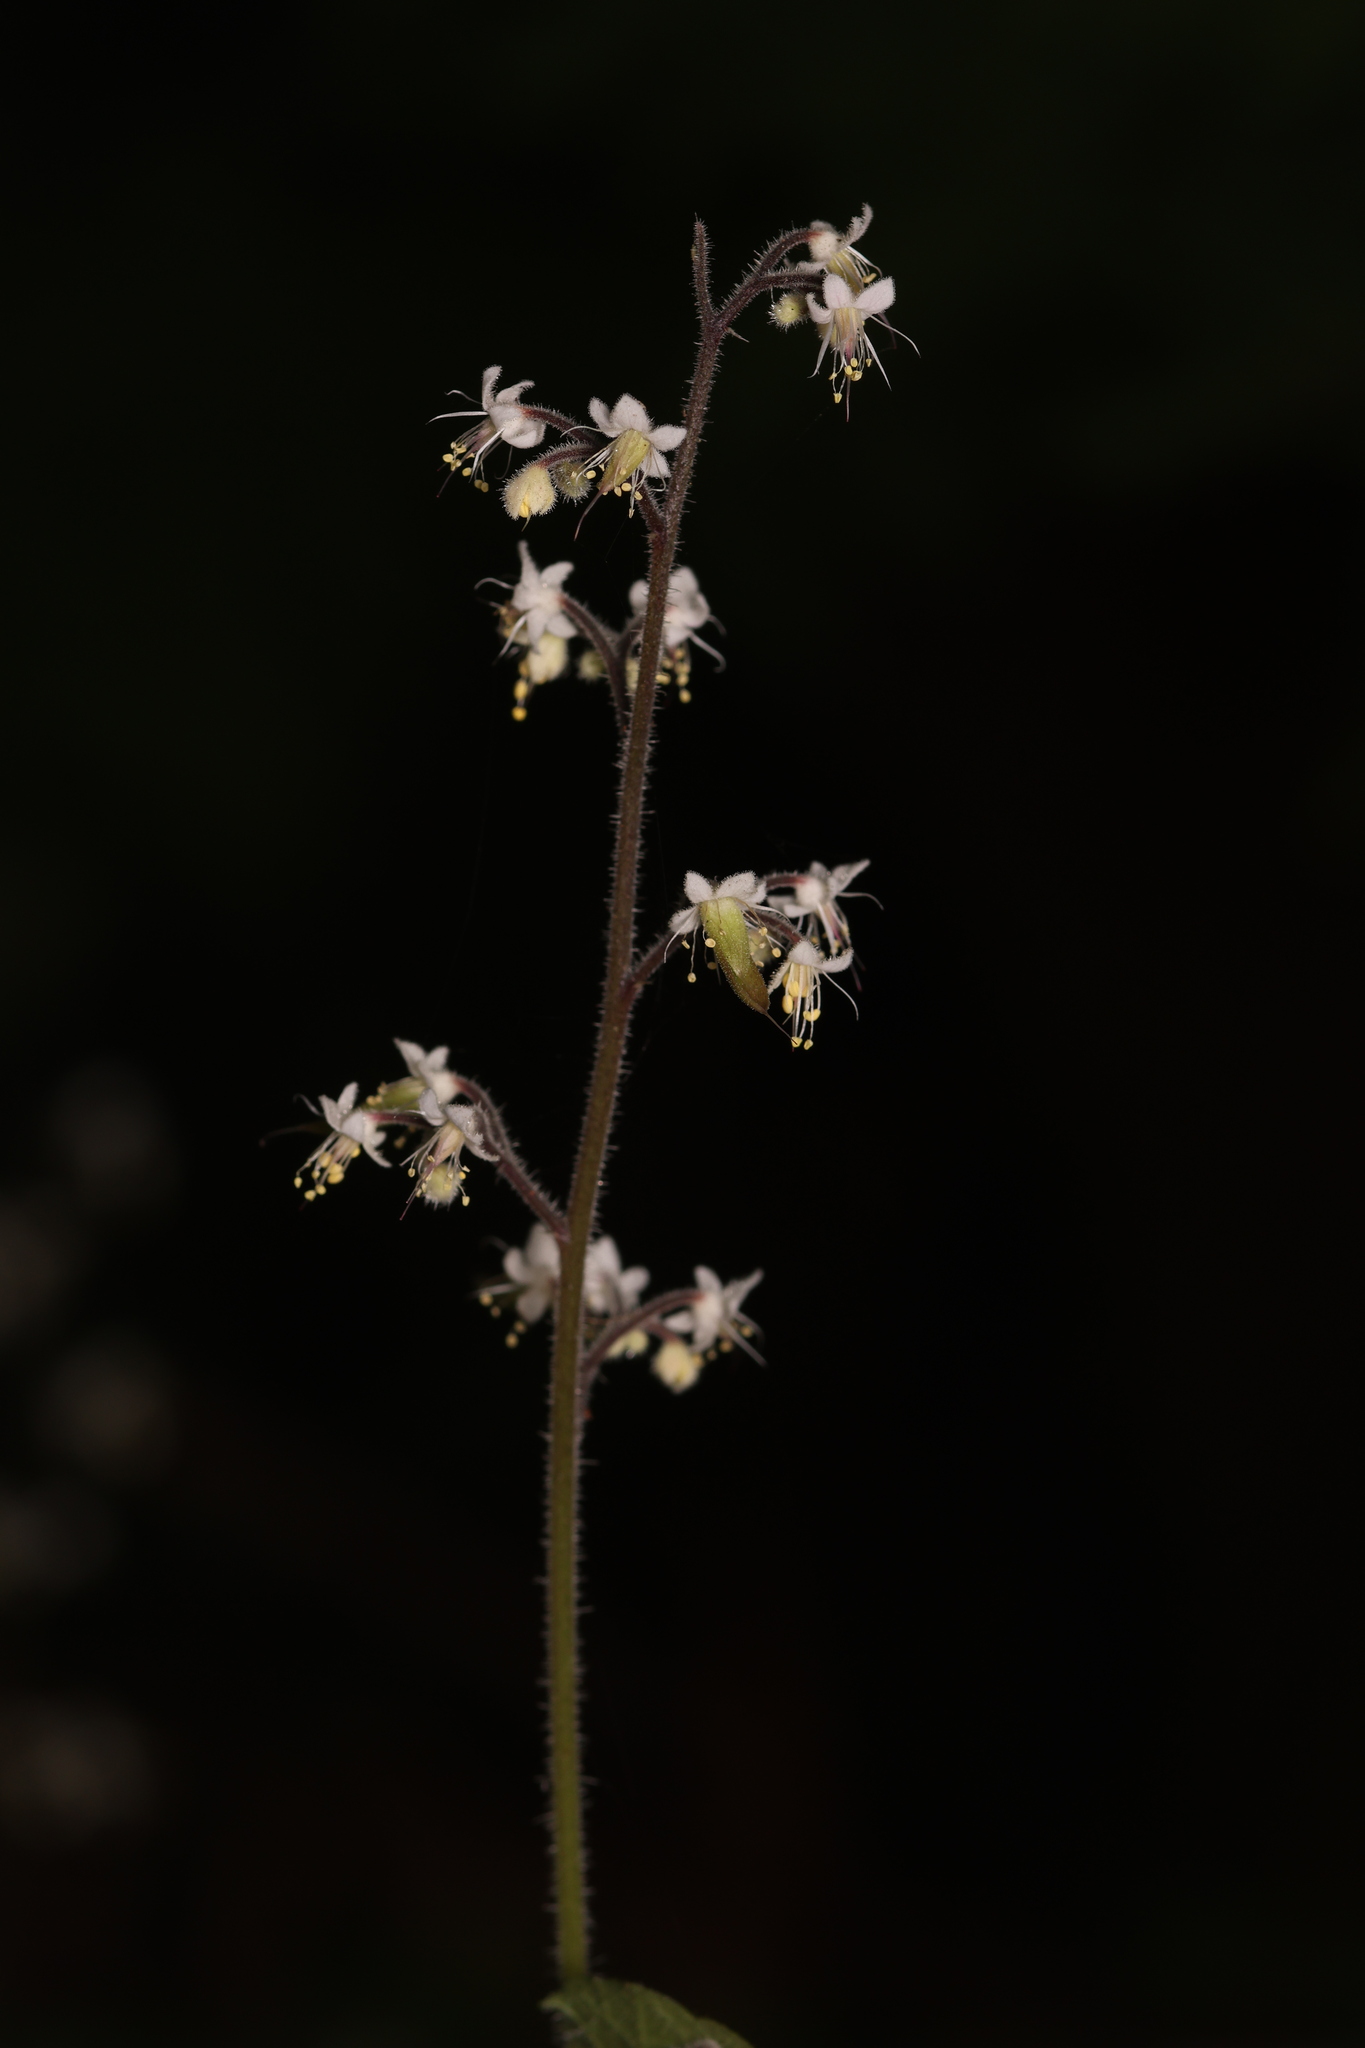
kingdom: Plantae
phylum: Tracheophyta
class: Magnoliopsida
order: Saxifragales
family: Saxifragaceae
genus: Tiarella
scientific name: Tiarella trifoliata
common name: Sugar-scoop
